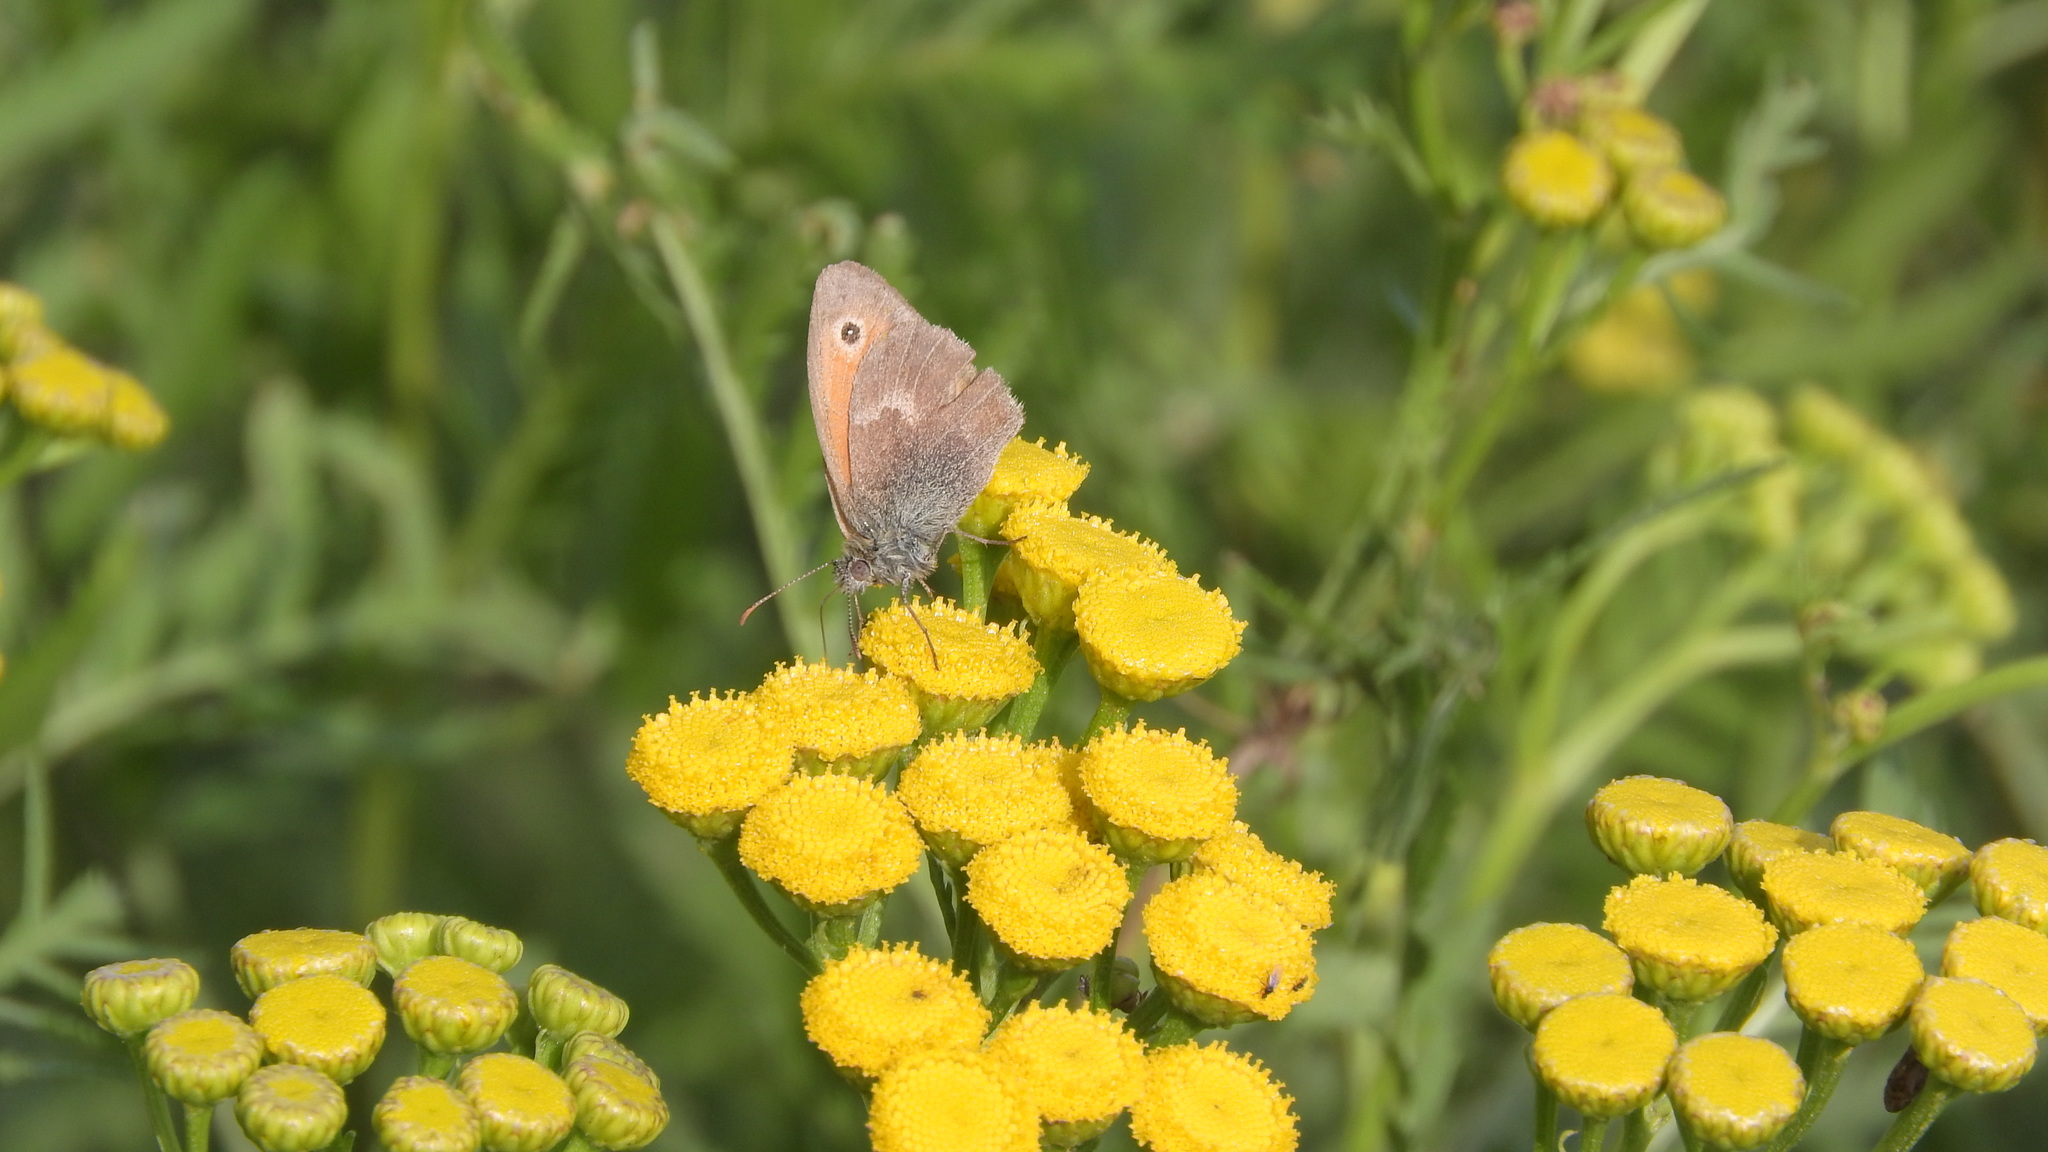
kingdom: Animalia
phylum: Arthropoda
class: Insecta
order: Lepidoptera
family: Nymphalidae
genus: Coenonympha
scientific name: Coenonympha pamphilus
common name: Small heath
